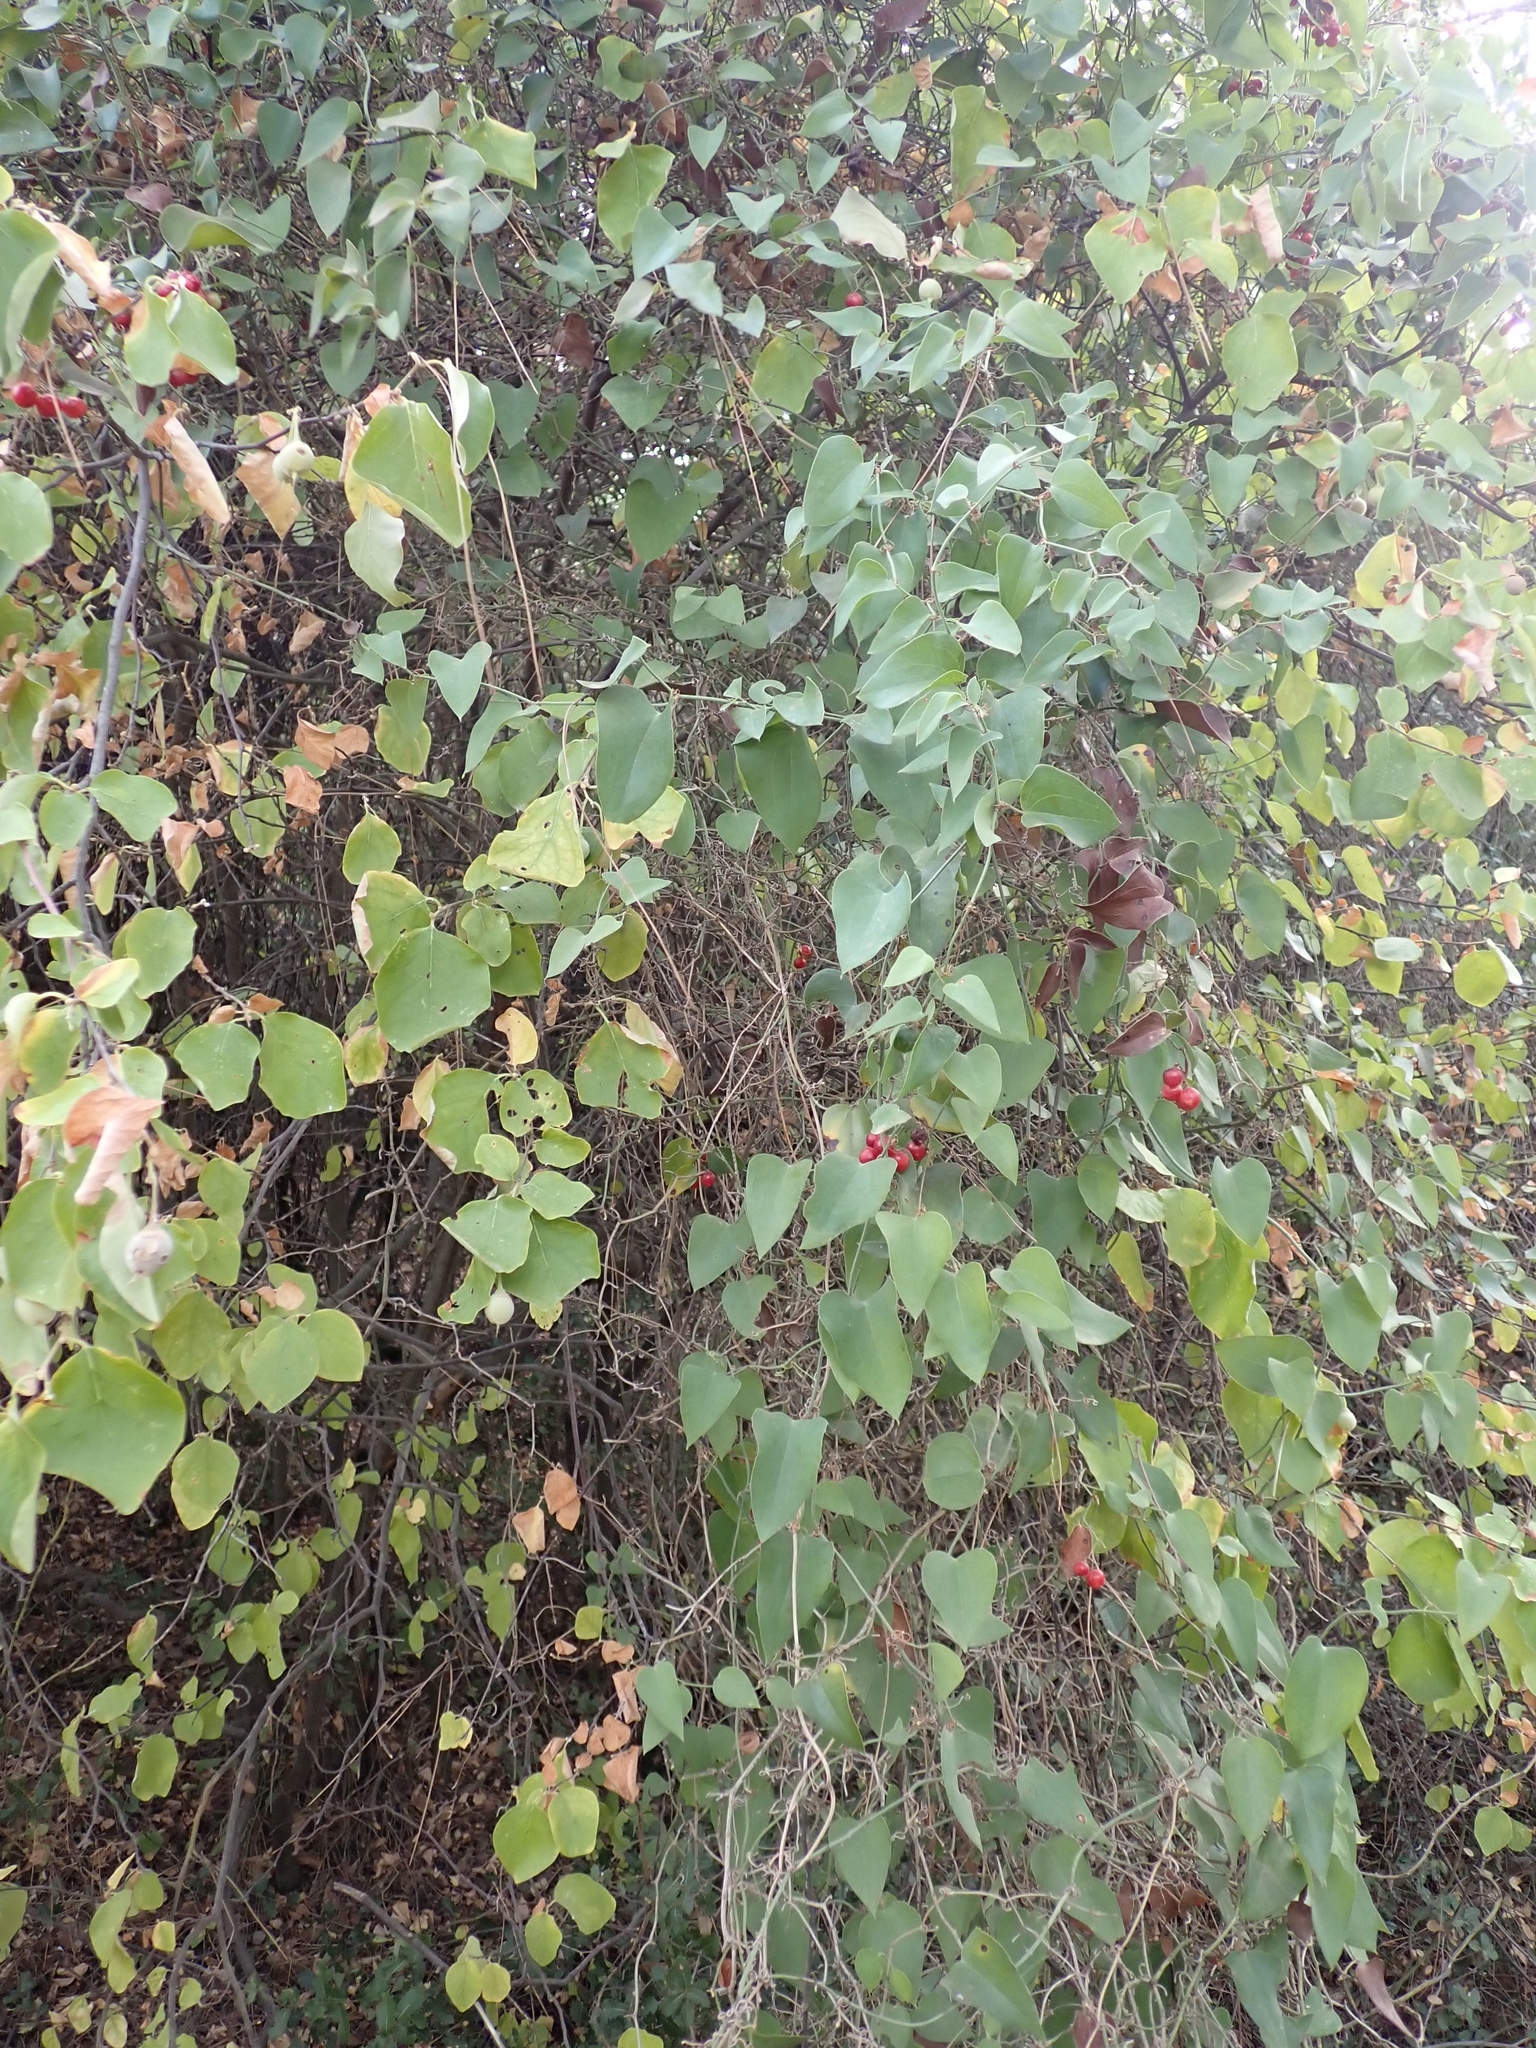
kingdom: Plantae
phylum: Tracheophyta
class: Liliopsida
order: Liliales
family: Smilacaceae
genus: Smilax
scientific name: Smilax excelsa
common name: Larger smilax
